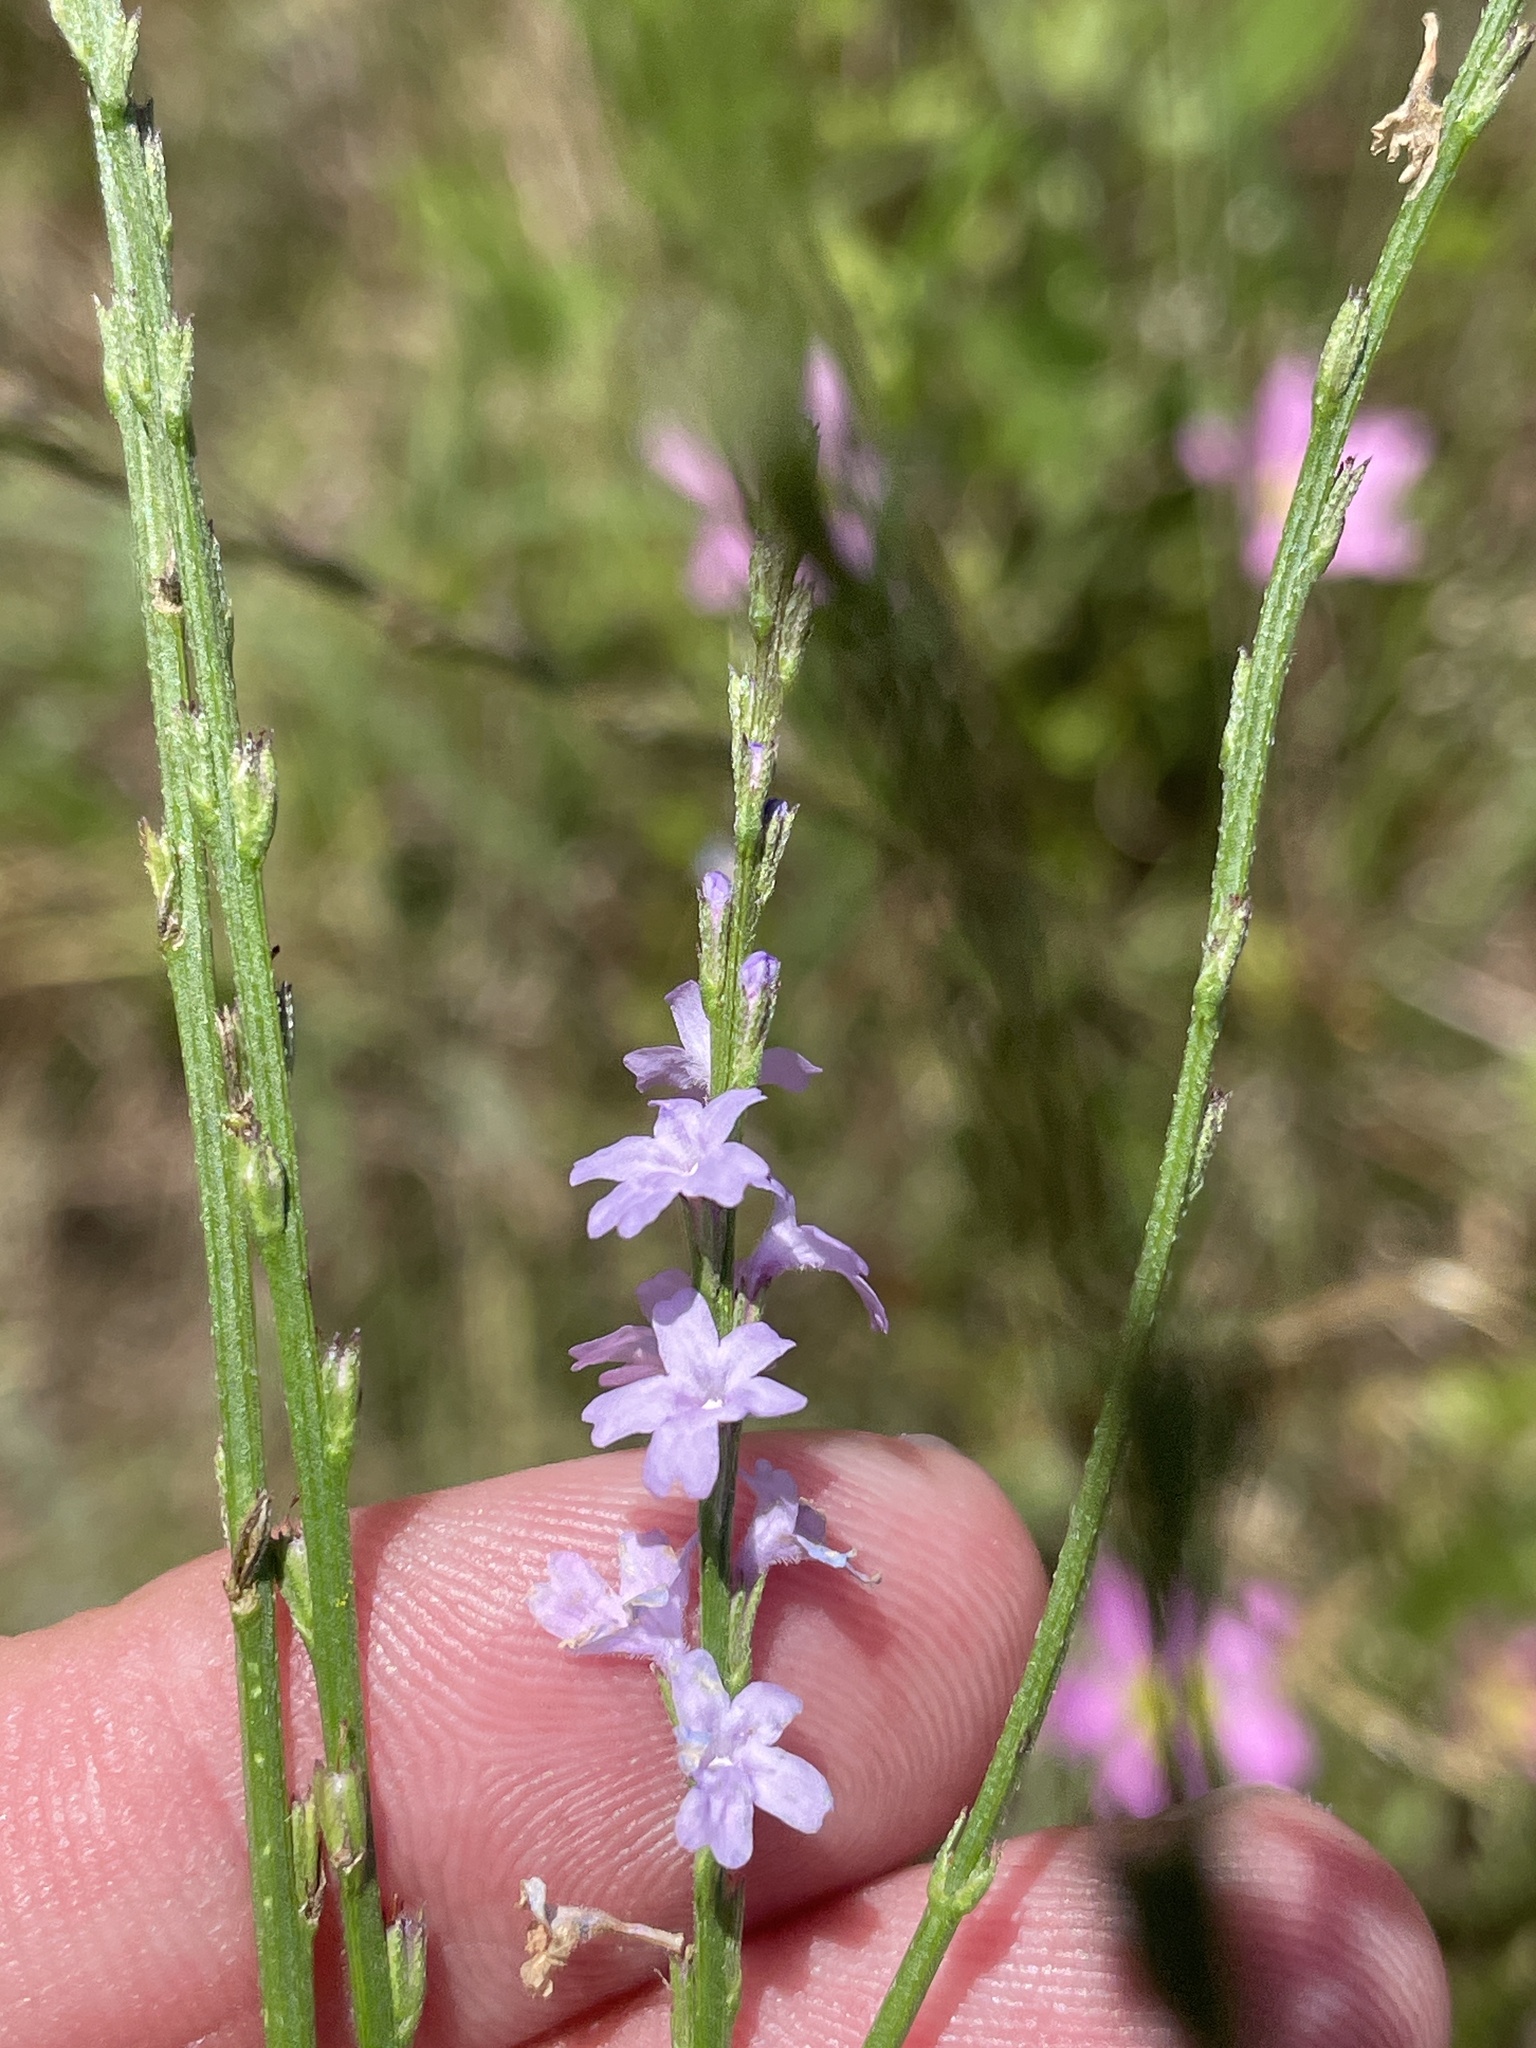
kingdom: Plantae
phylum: Tracheophyta
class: Magnoliopsida
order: Lamiales
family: Verbenaceae
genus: Verbena
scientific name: Verbena halei
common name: Texas vervain
